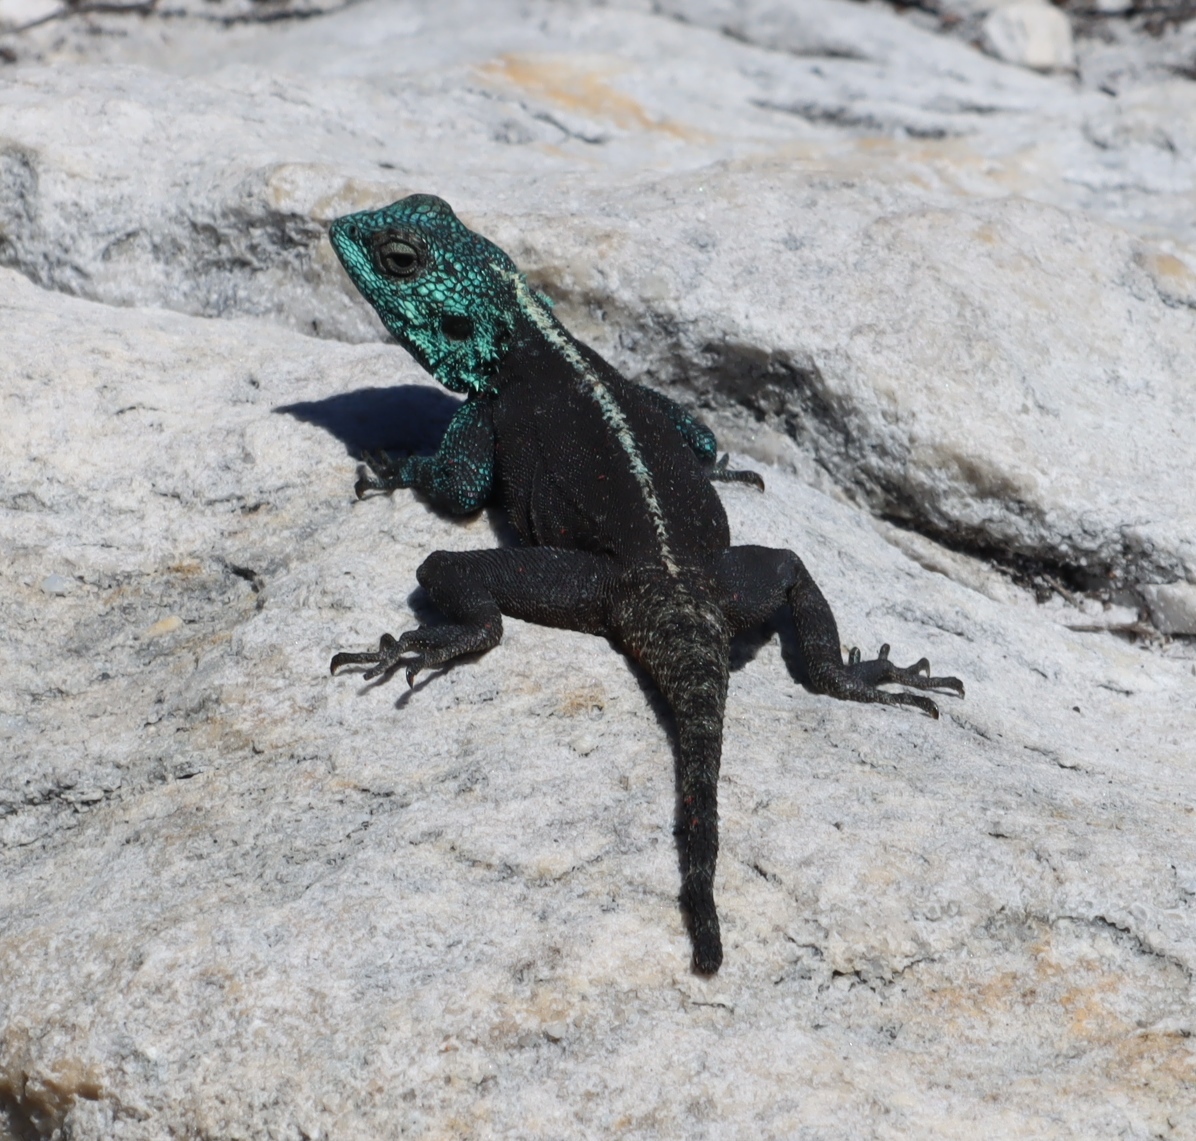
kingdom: Animalia
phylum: Chordata
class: Squamata
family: Agamidae
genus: Agama
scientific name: Agama atra
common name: Southern african rock agama
